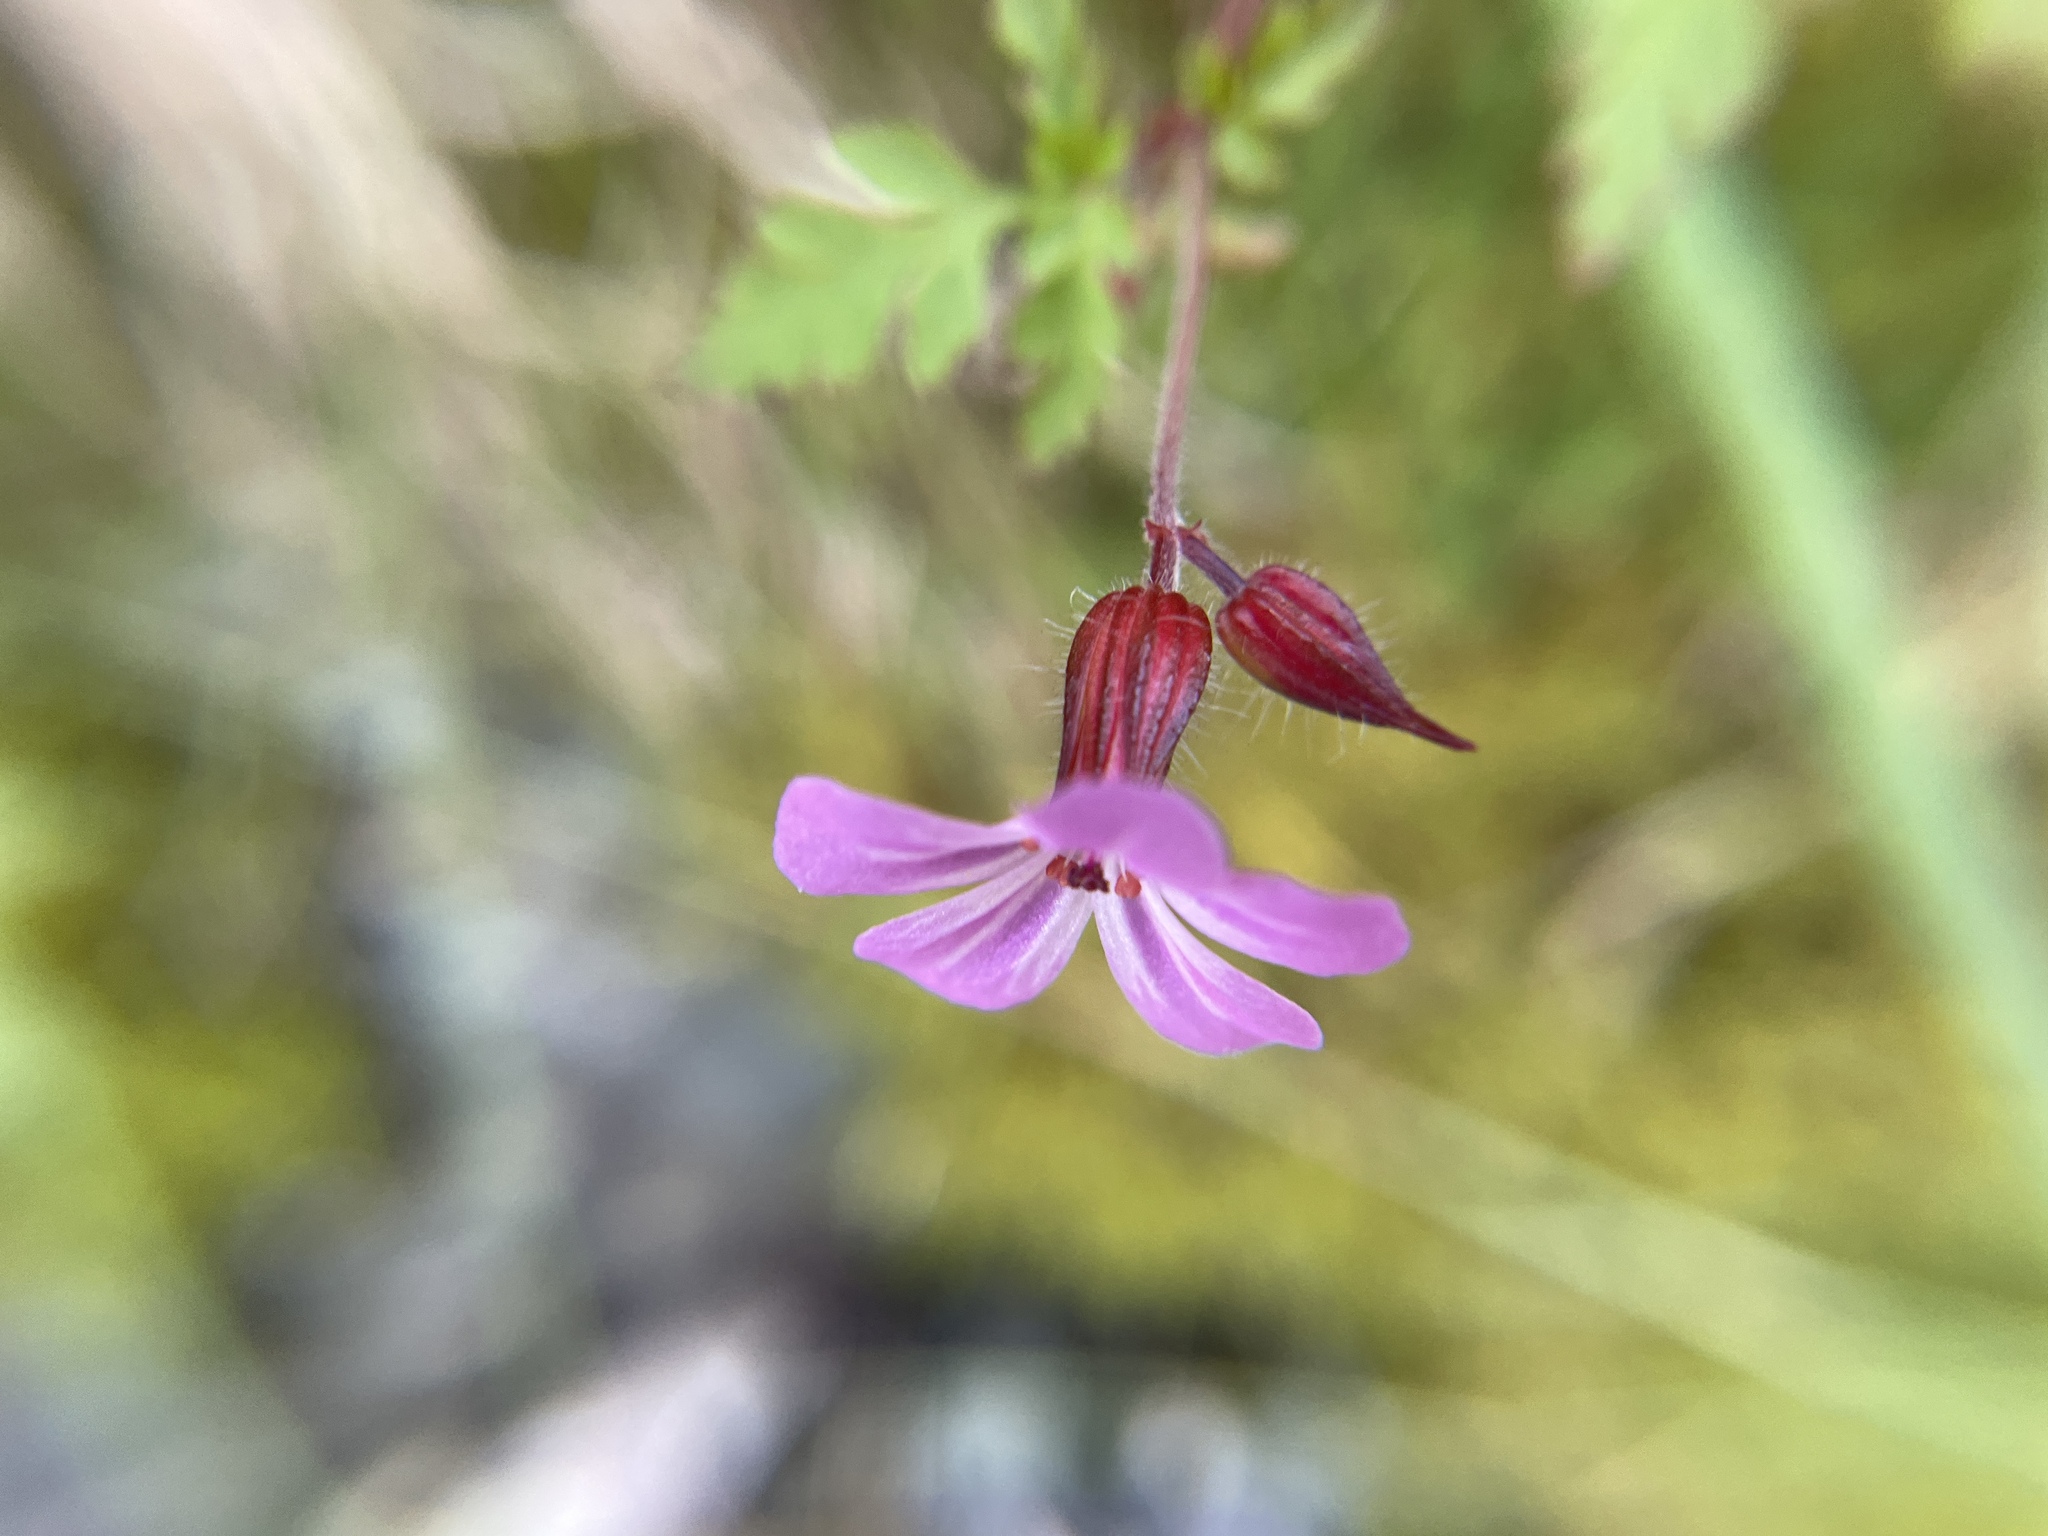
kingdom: Plantae
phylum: Tracheophyta
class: Magnoliopsida
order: Geraniales
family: Geraniaceae
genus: Geranium
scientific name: Geranium robertianum
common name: Herb-robert
